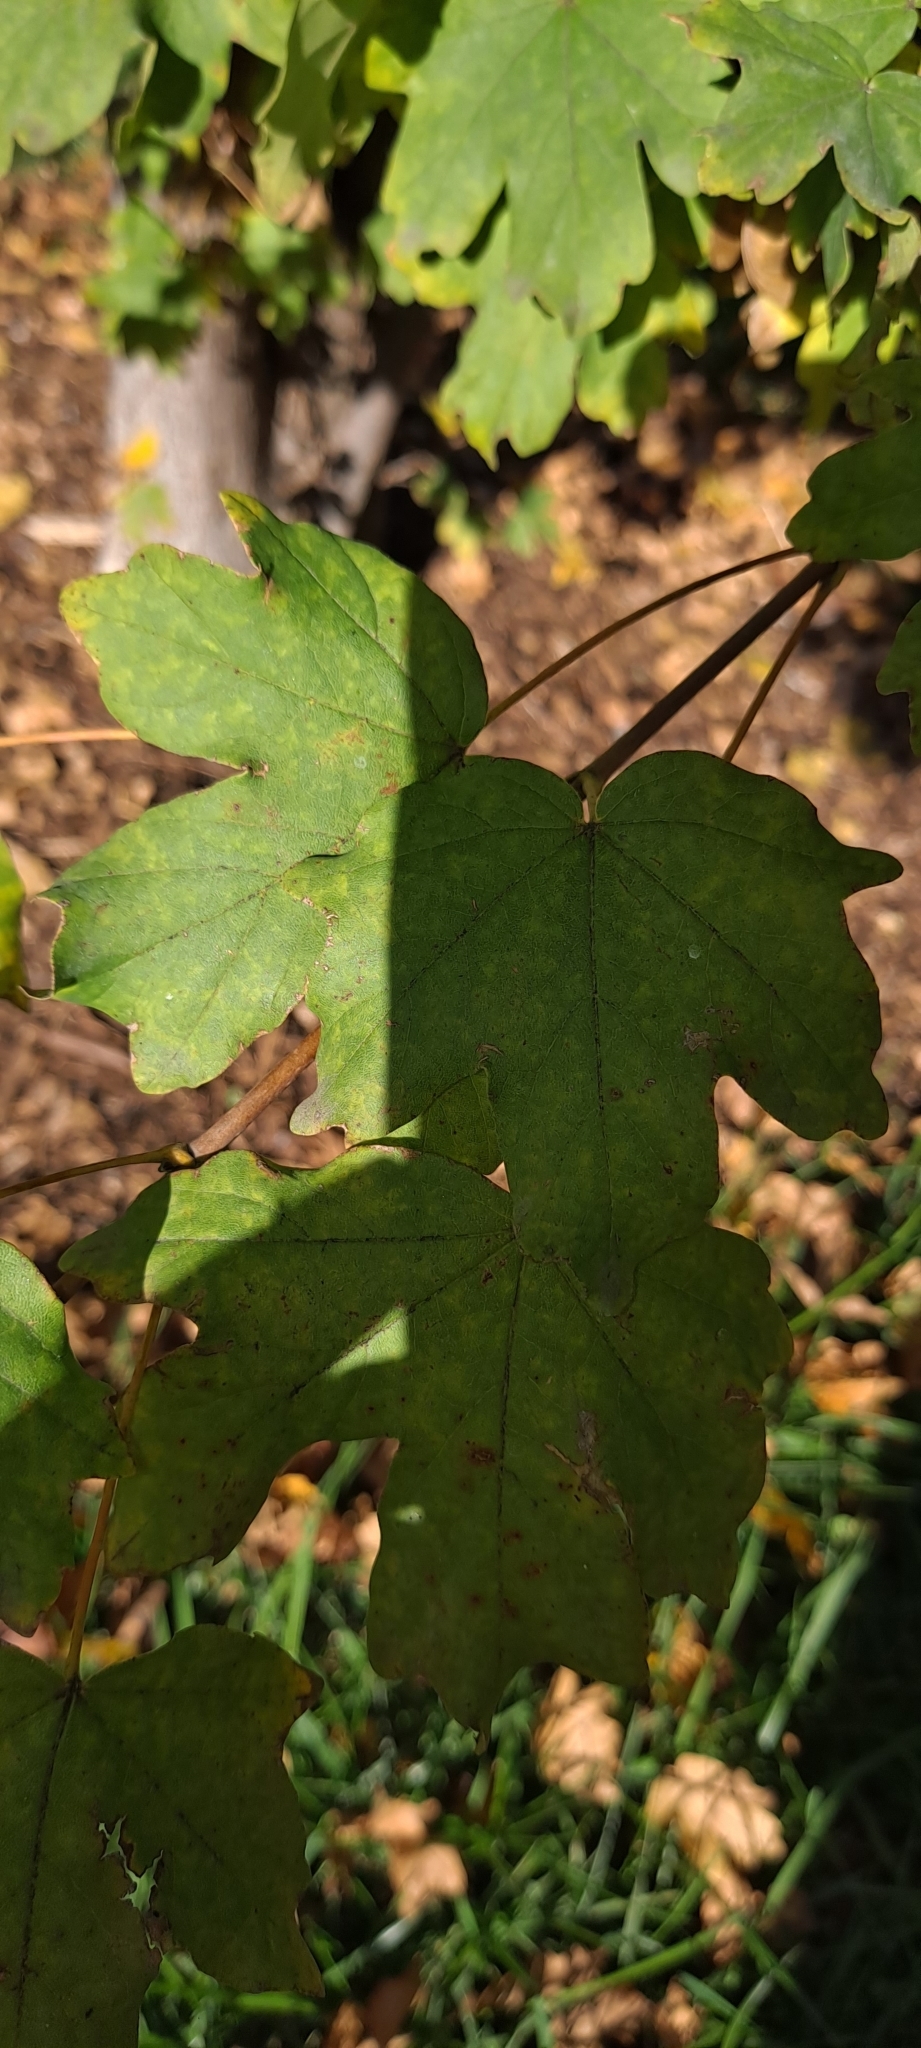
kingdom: Plantae
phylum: Tracheophyta
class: Magnoliopsida
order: Sapindales
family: Sapindaceae
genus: Acer
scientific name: Acer campestre
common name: Field maple
